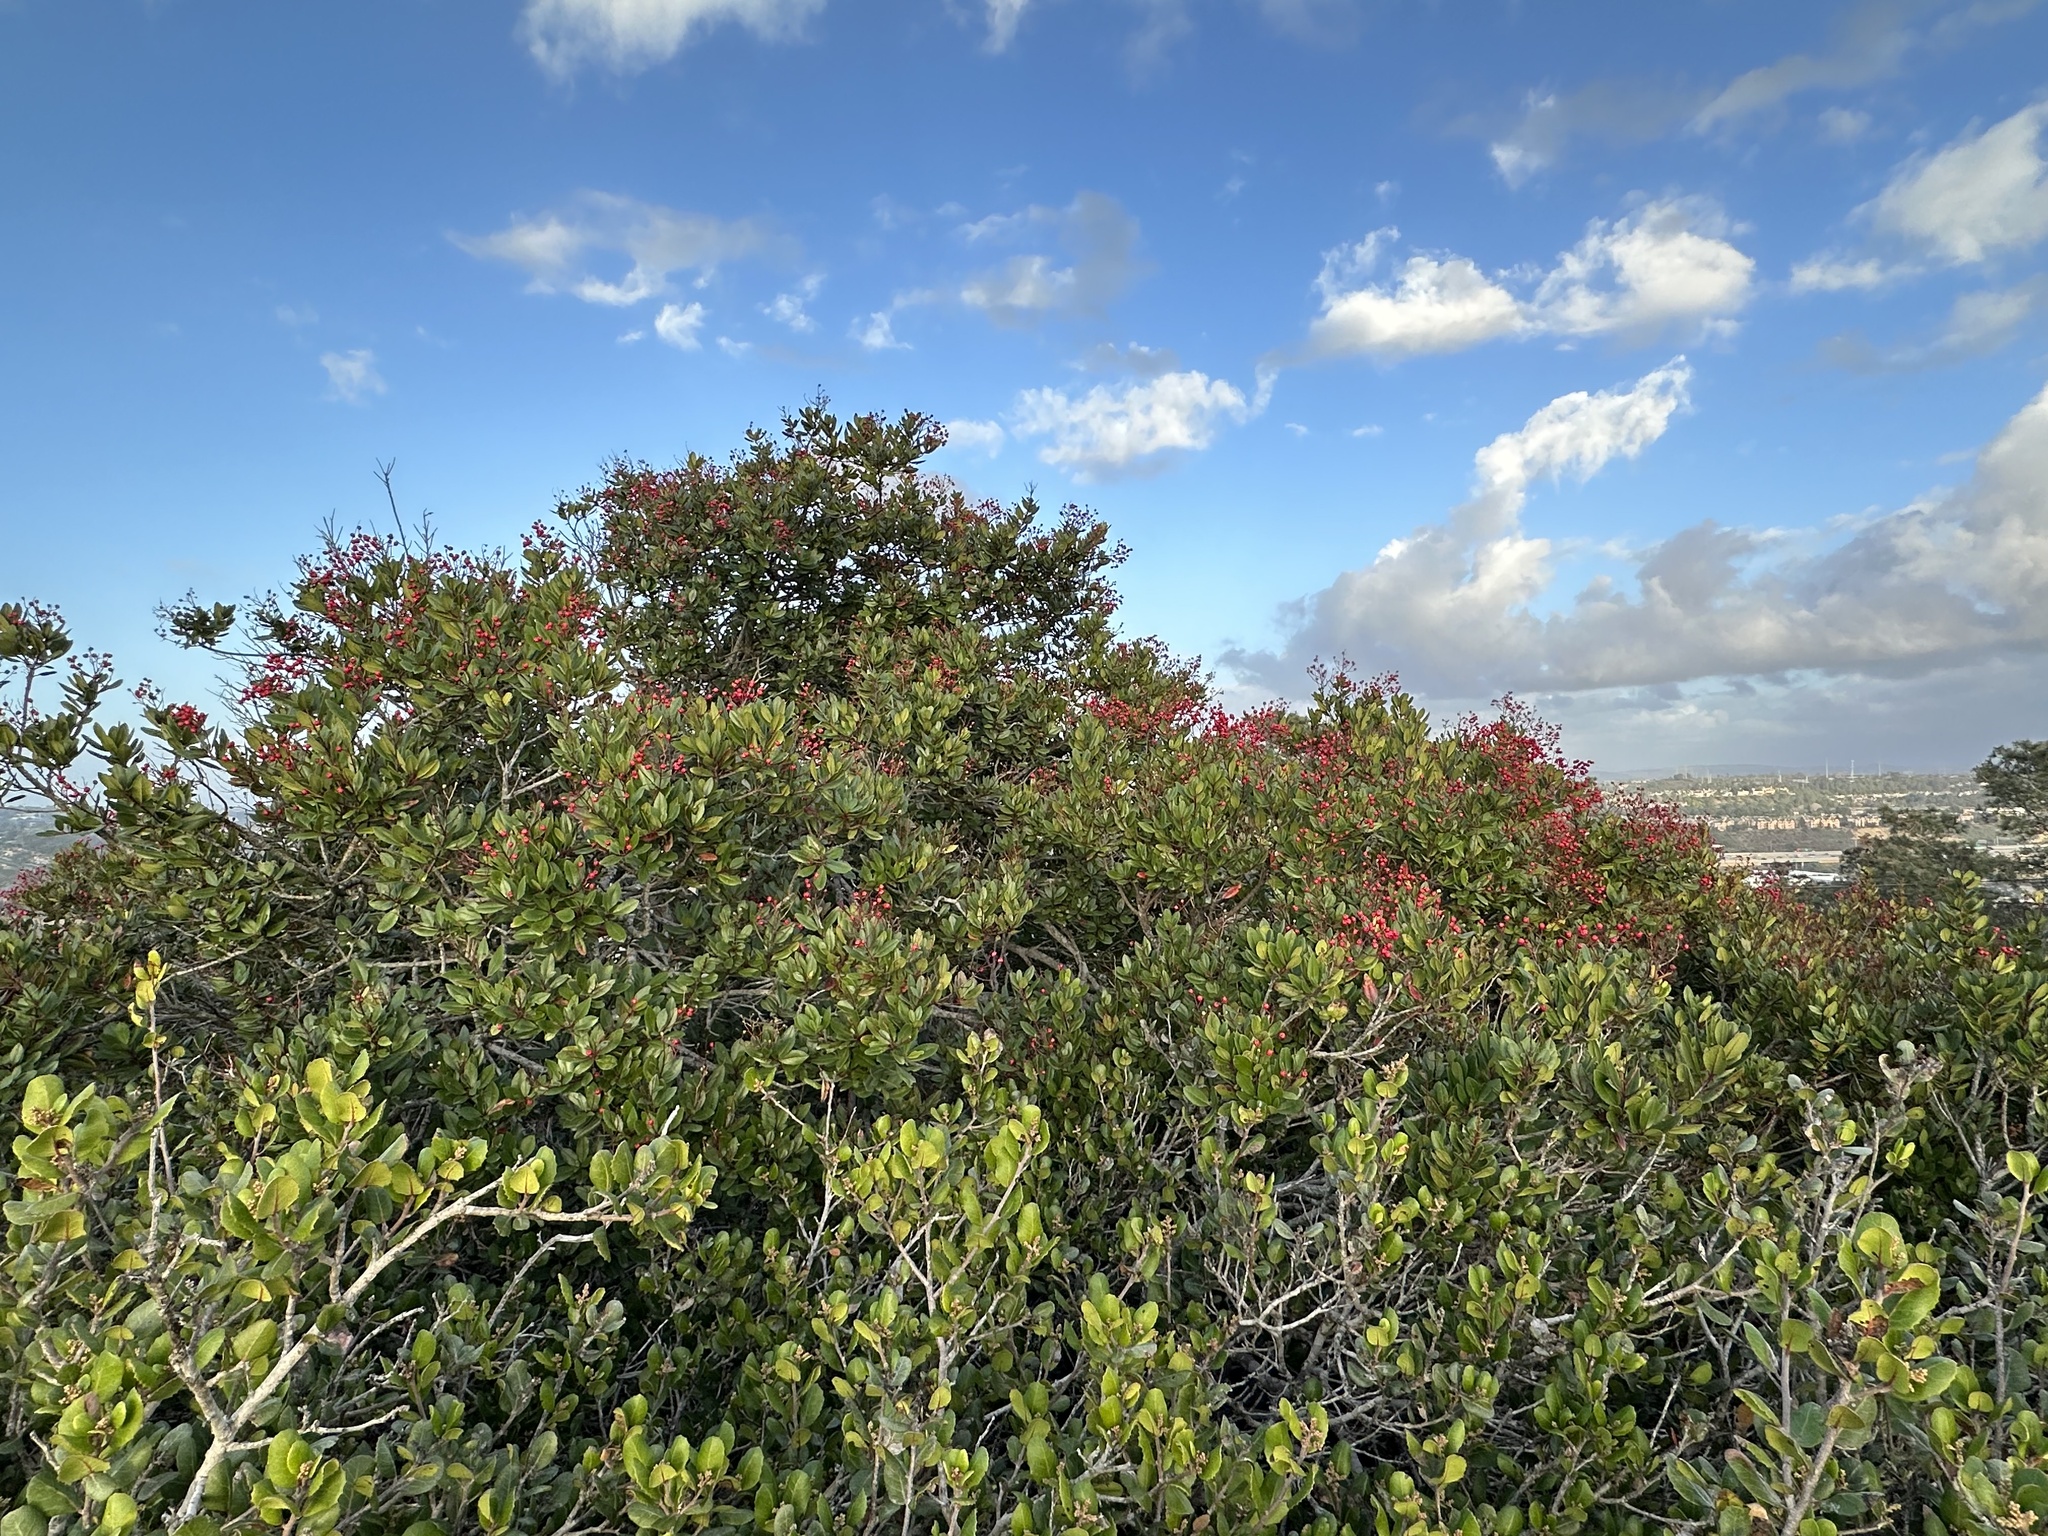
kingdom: Plantae
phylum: Tracheophyta
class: Magnoliopsida
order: Rosales
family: Rosaceae
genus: Heteromeles
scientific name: Heteromeles arbutifolia
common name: California-holly
